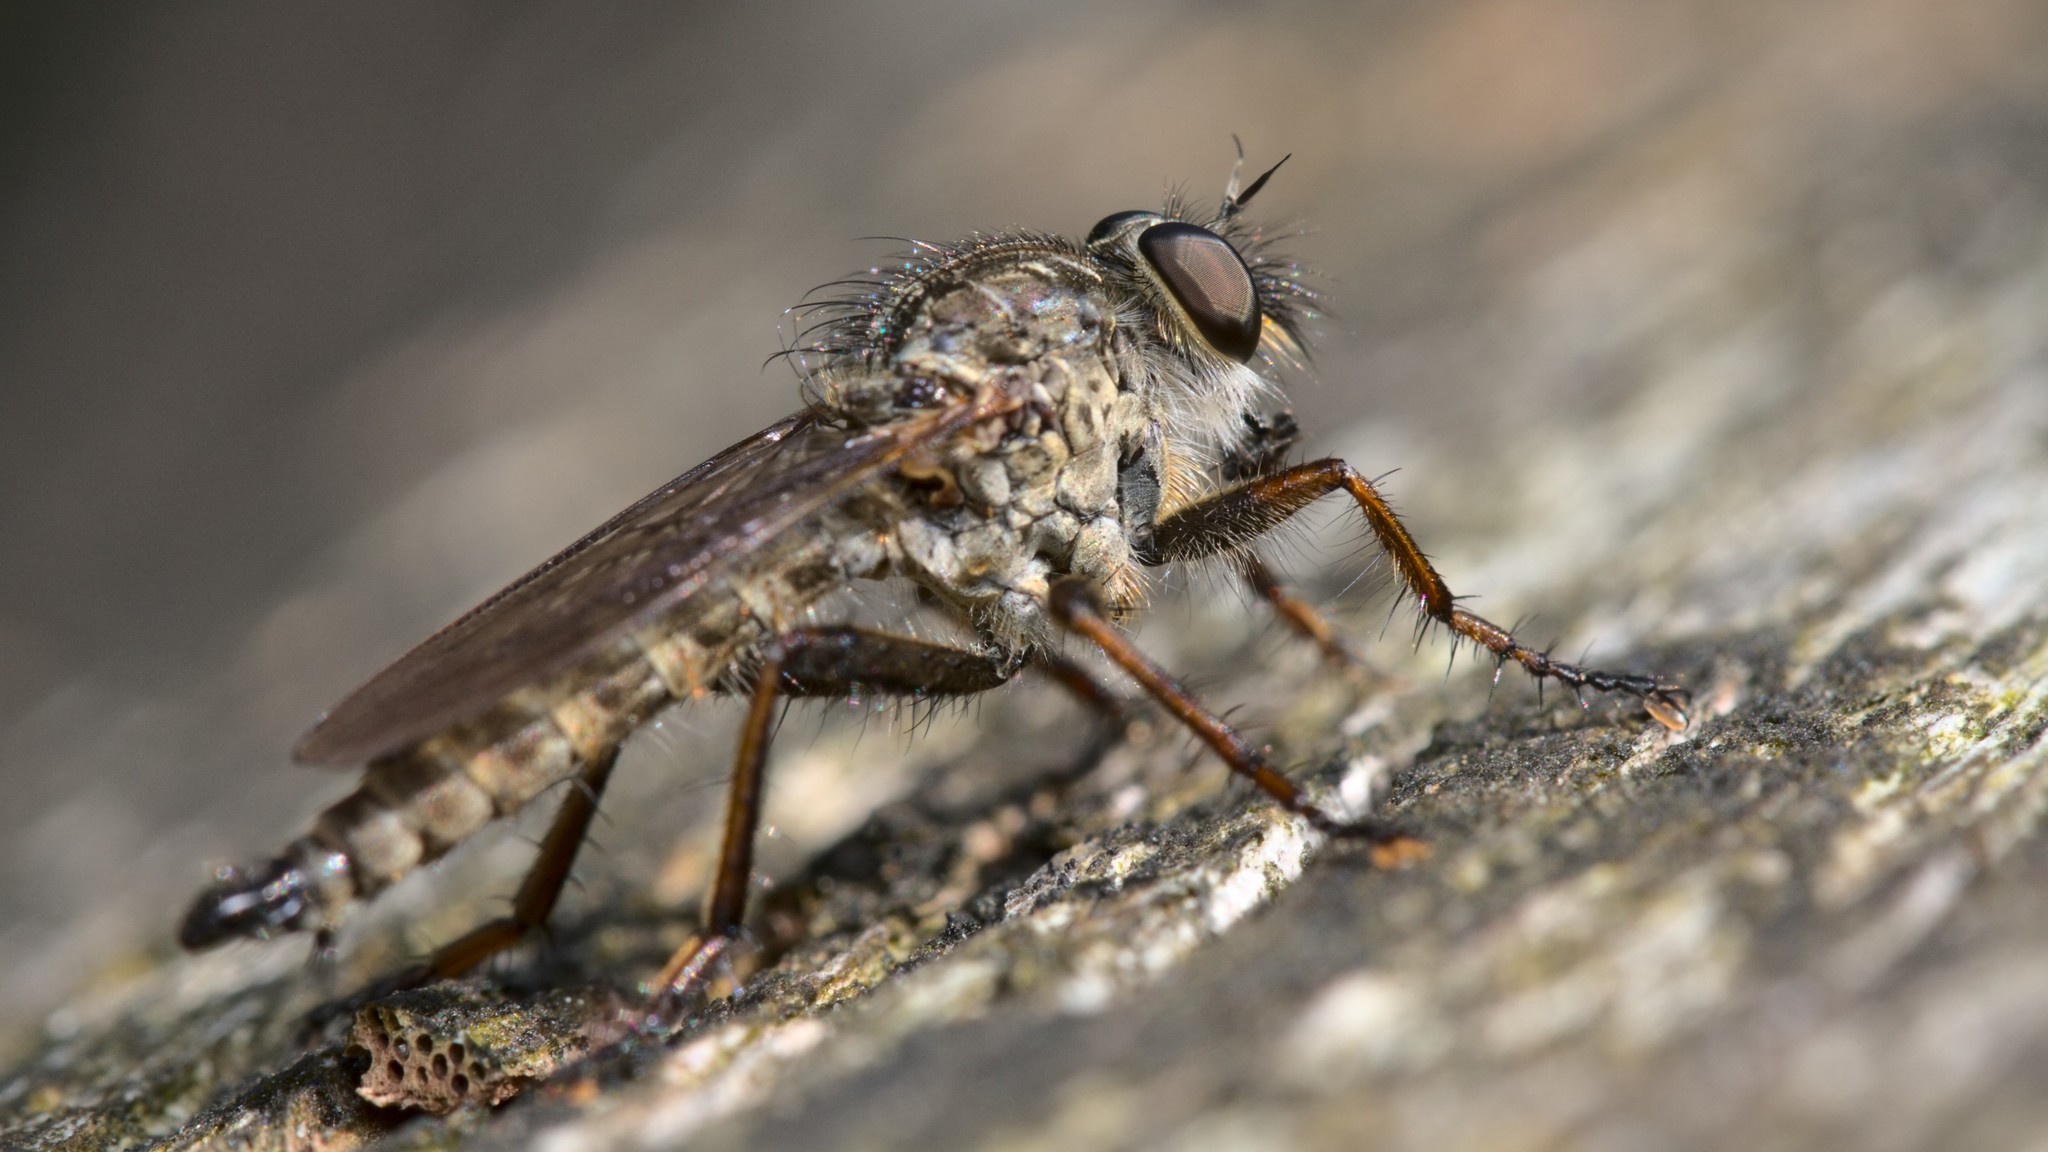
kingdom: Animalia
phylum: Arthropoda
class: Insecta
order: Diptera
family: Asilidae
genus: Machimus
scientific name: Machimus atricapillus
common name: Kite-tailed robberfly
